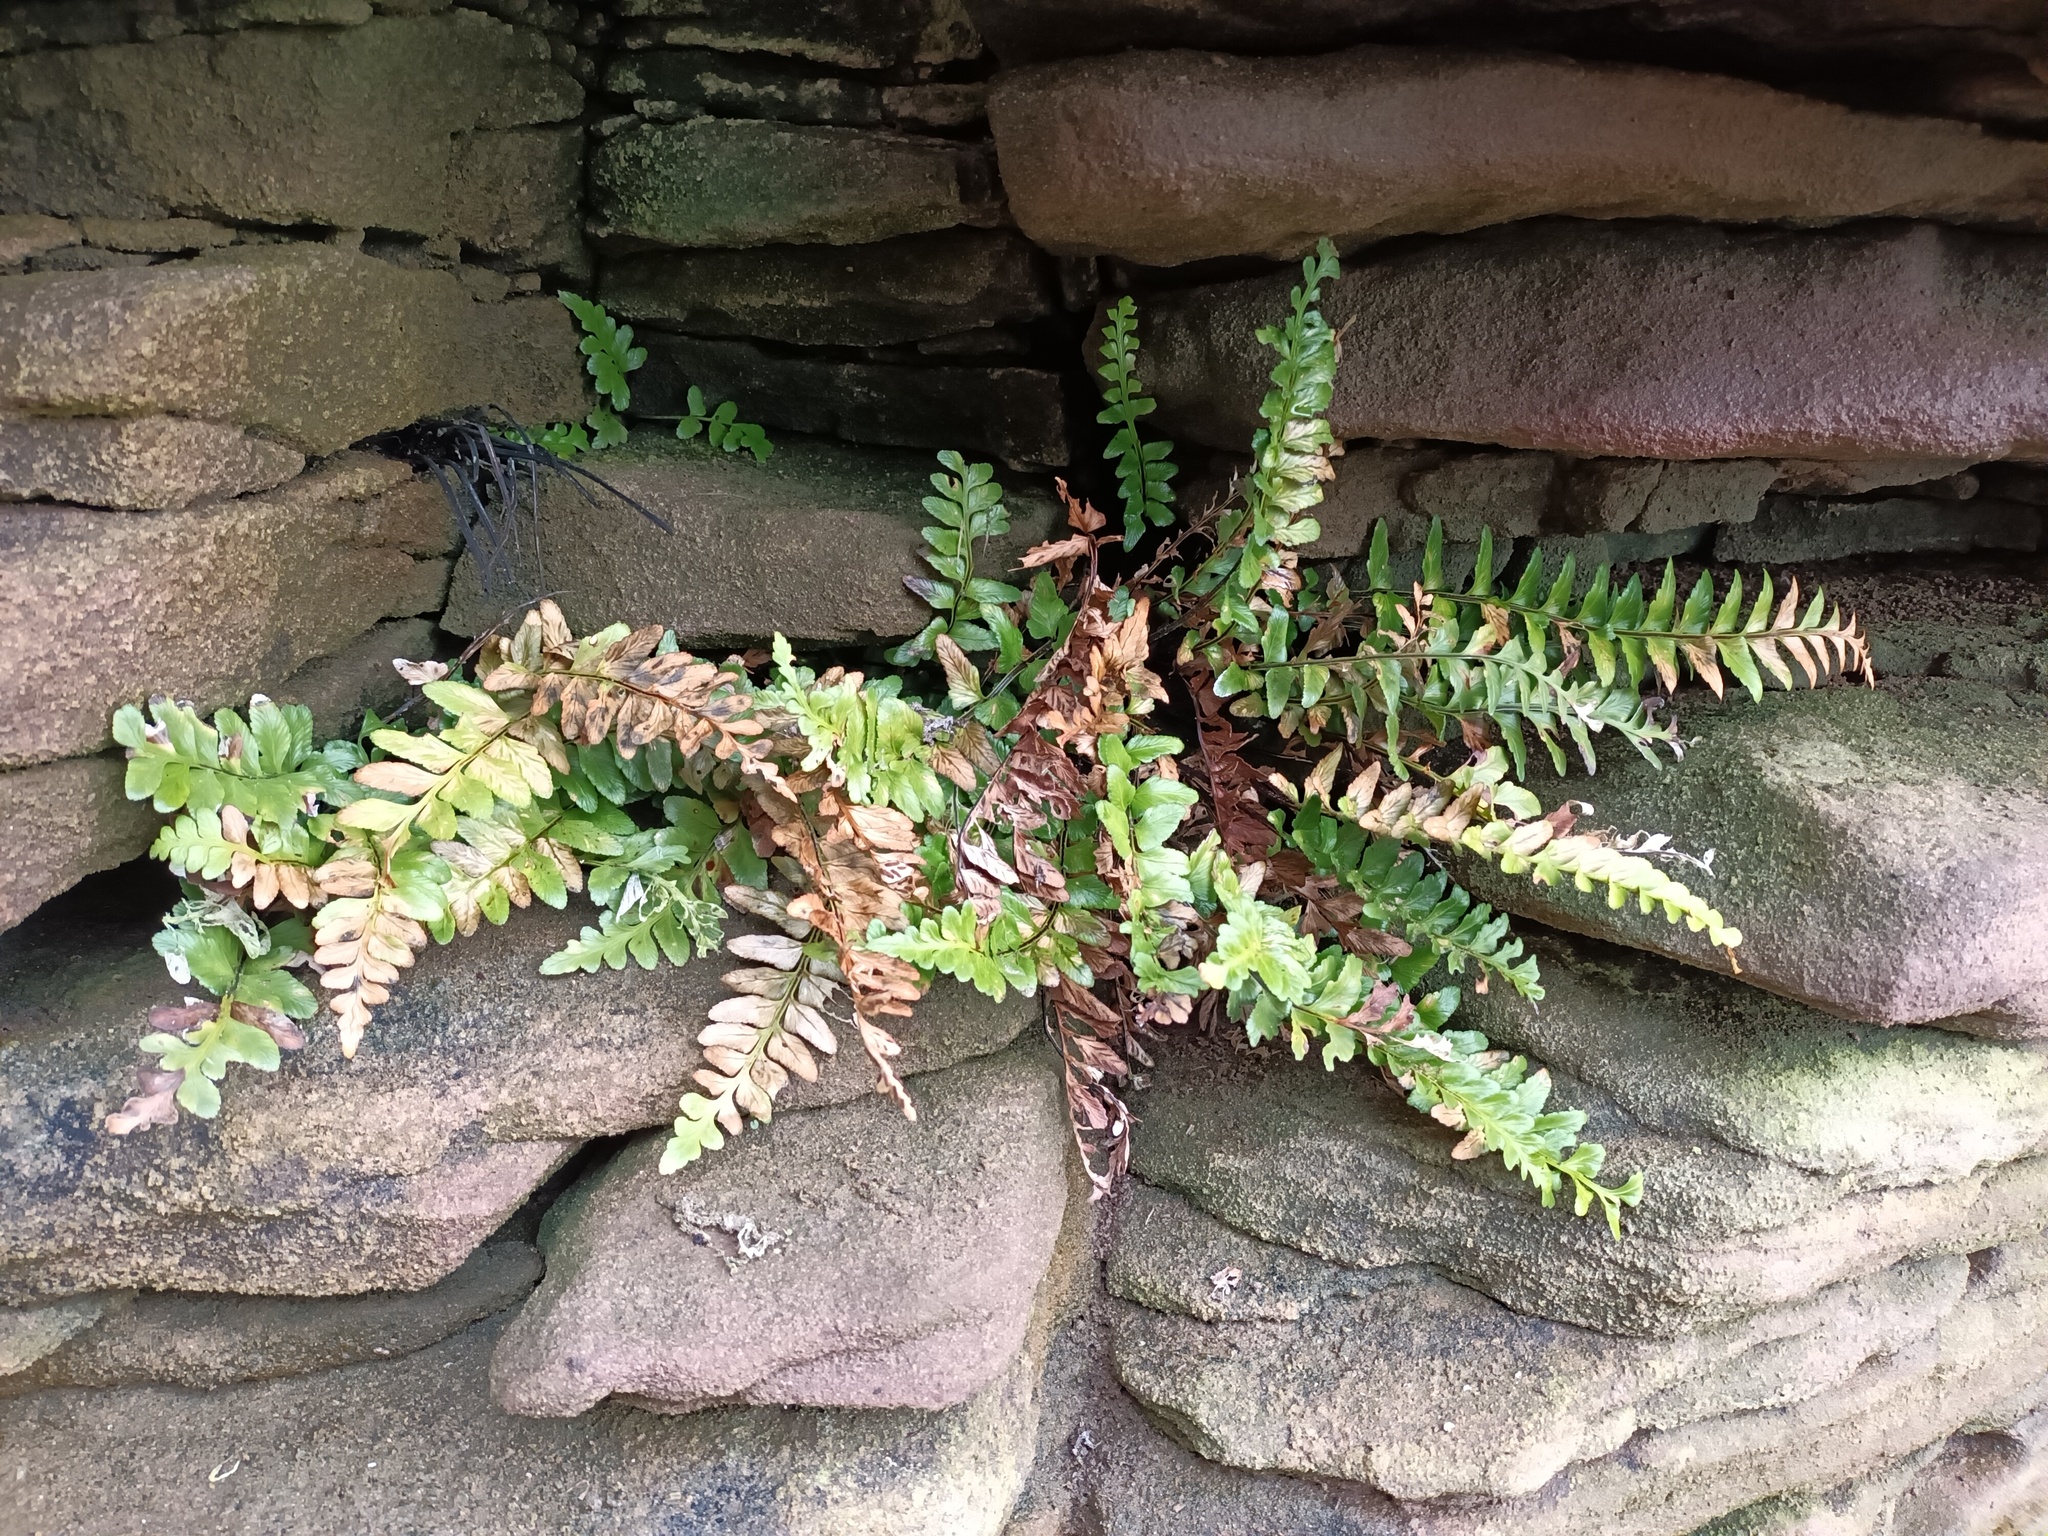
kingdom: Plantae
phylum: Tracheophyta
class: Polypodiopsida
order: Polypodiales
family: Aspleniaceae
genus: Asplenium
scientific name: Asplenium marinum
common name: Sea spleenwort
